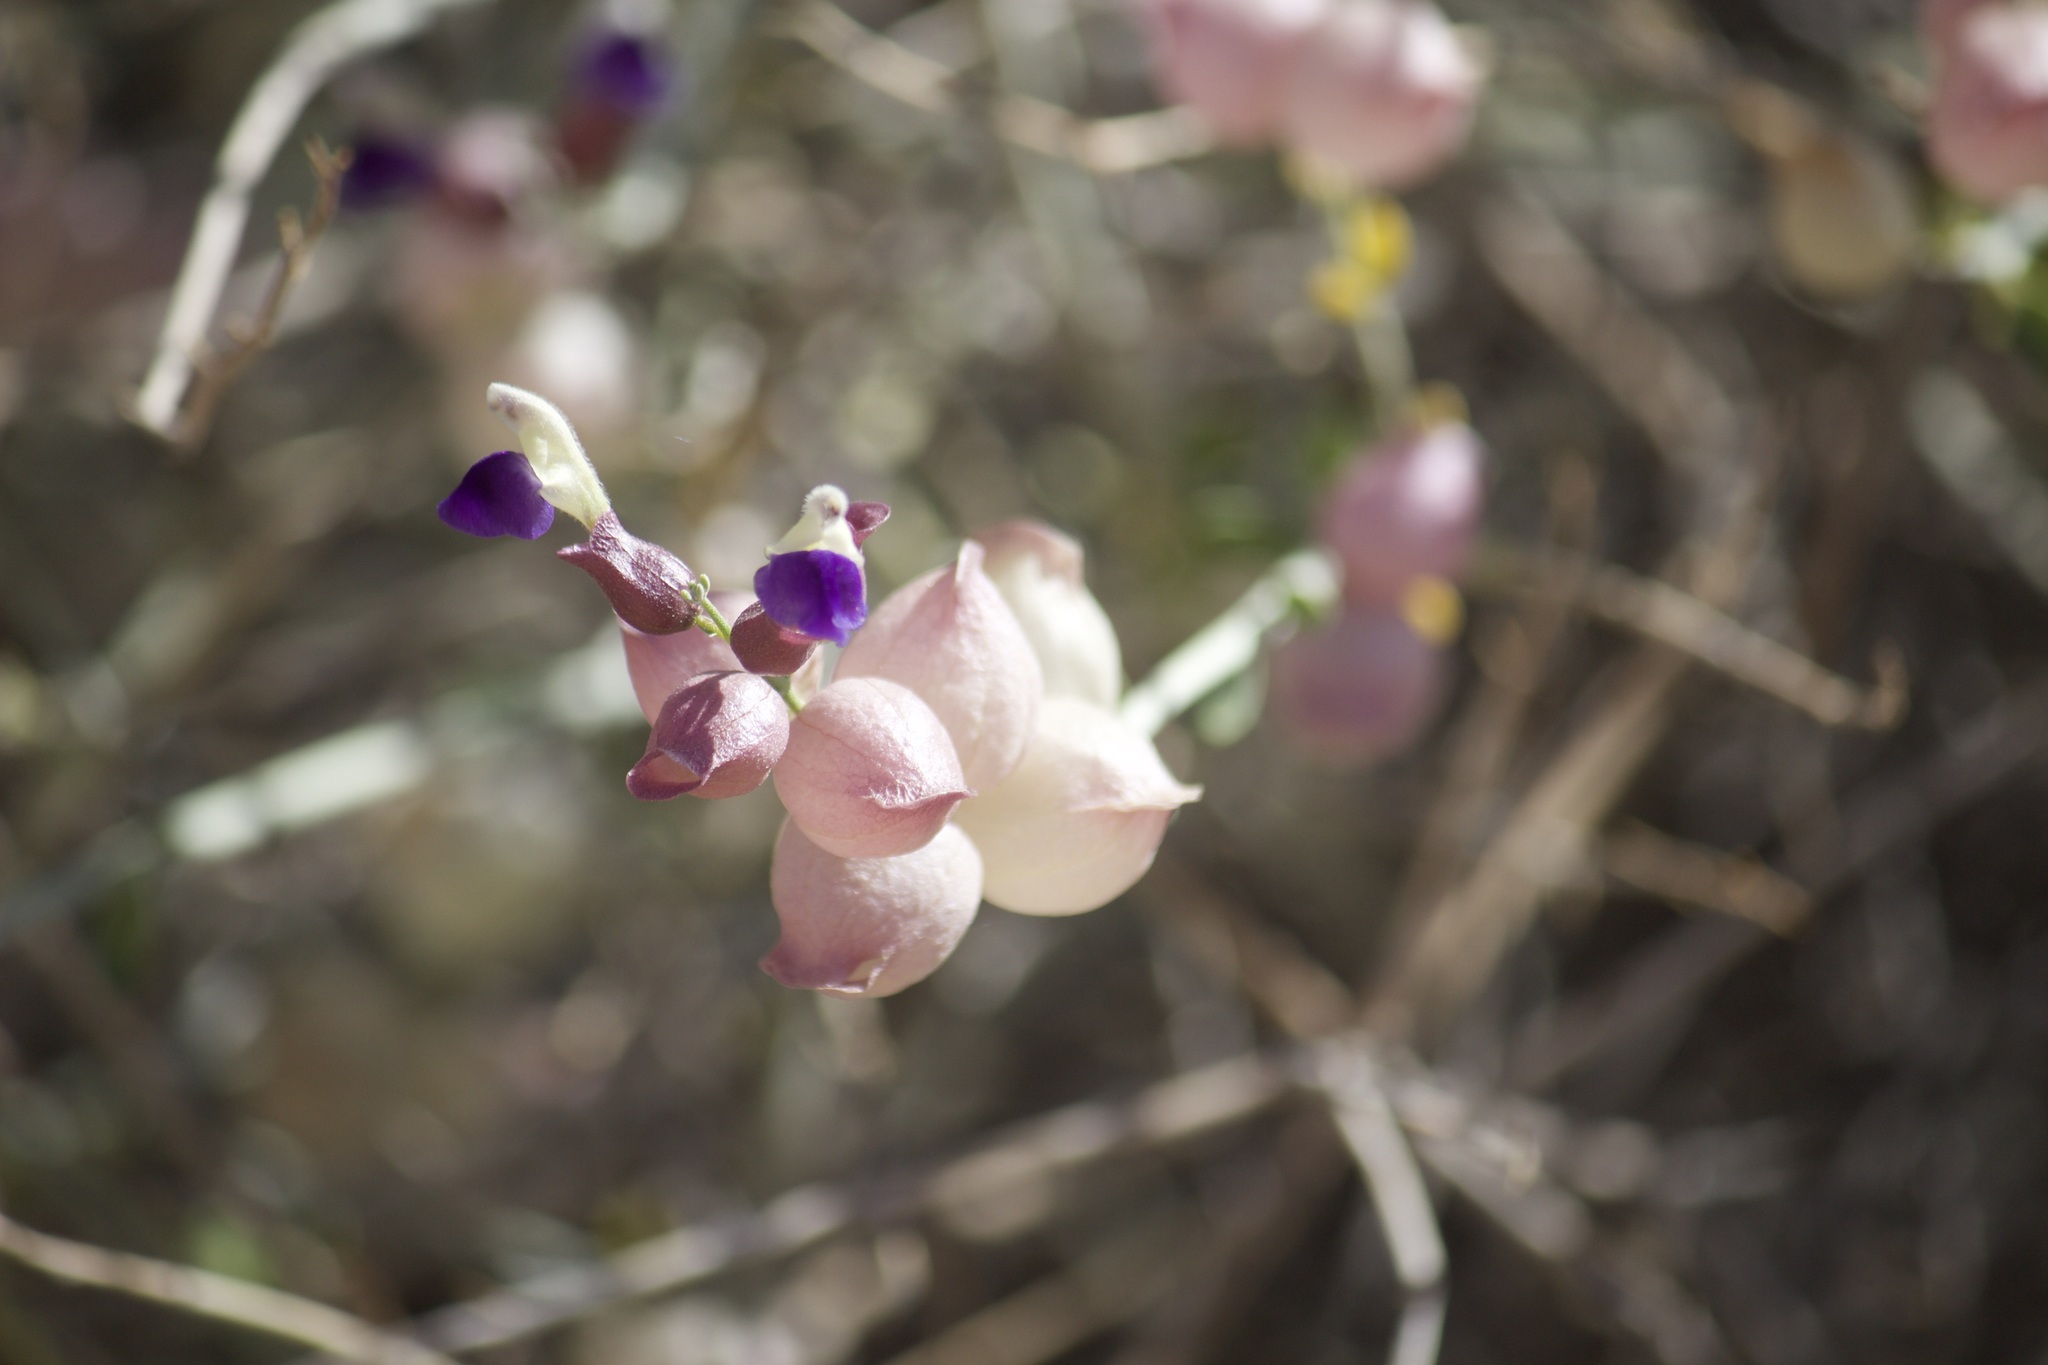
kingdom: Plantae
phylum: Tracheophyta
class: Magnoliopsida
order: Lamiales
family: Lamiaceae
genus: Scutellaria
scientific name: Scutellaria mexicana
